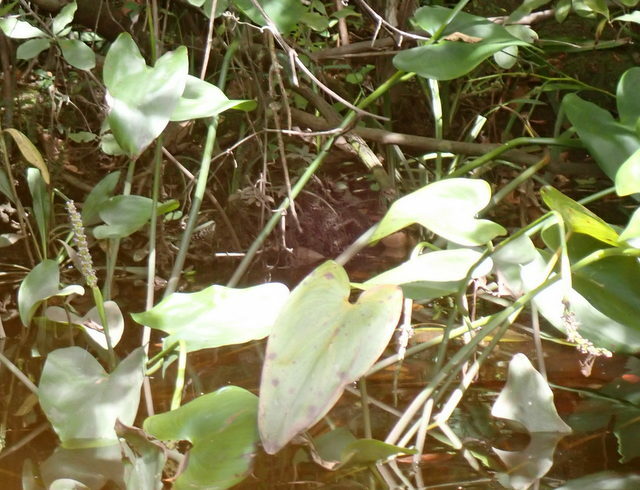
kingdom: Plantae
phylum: Tracheophyta
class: Liliopsida
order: Commelinales
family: Pontederiaceae
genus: Pontederia
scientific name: Pontederia cordata
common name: Pickerelweed
